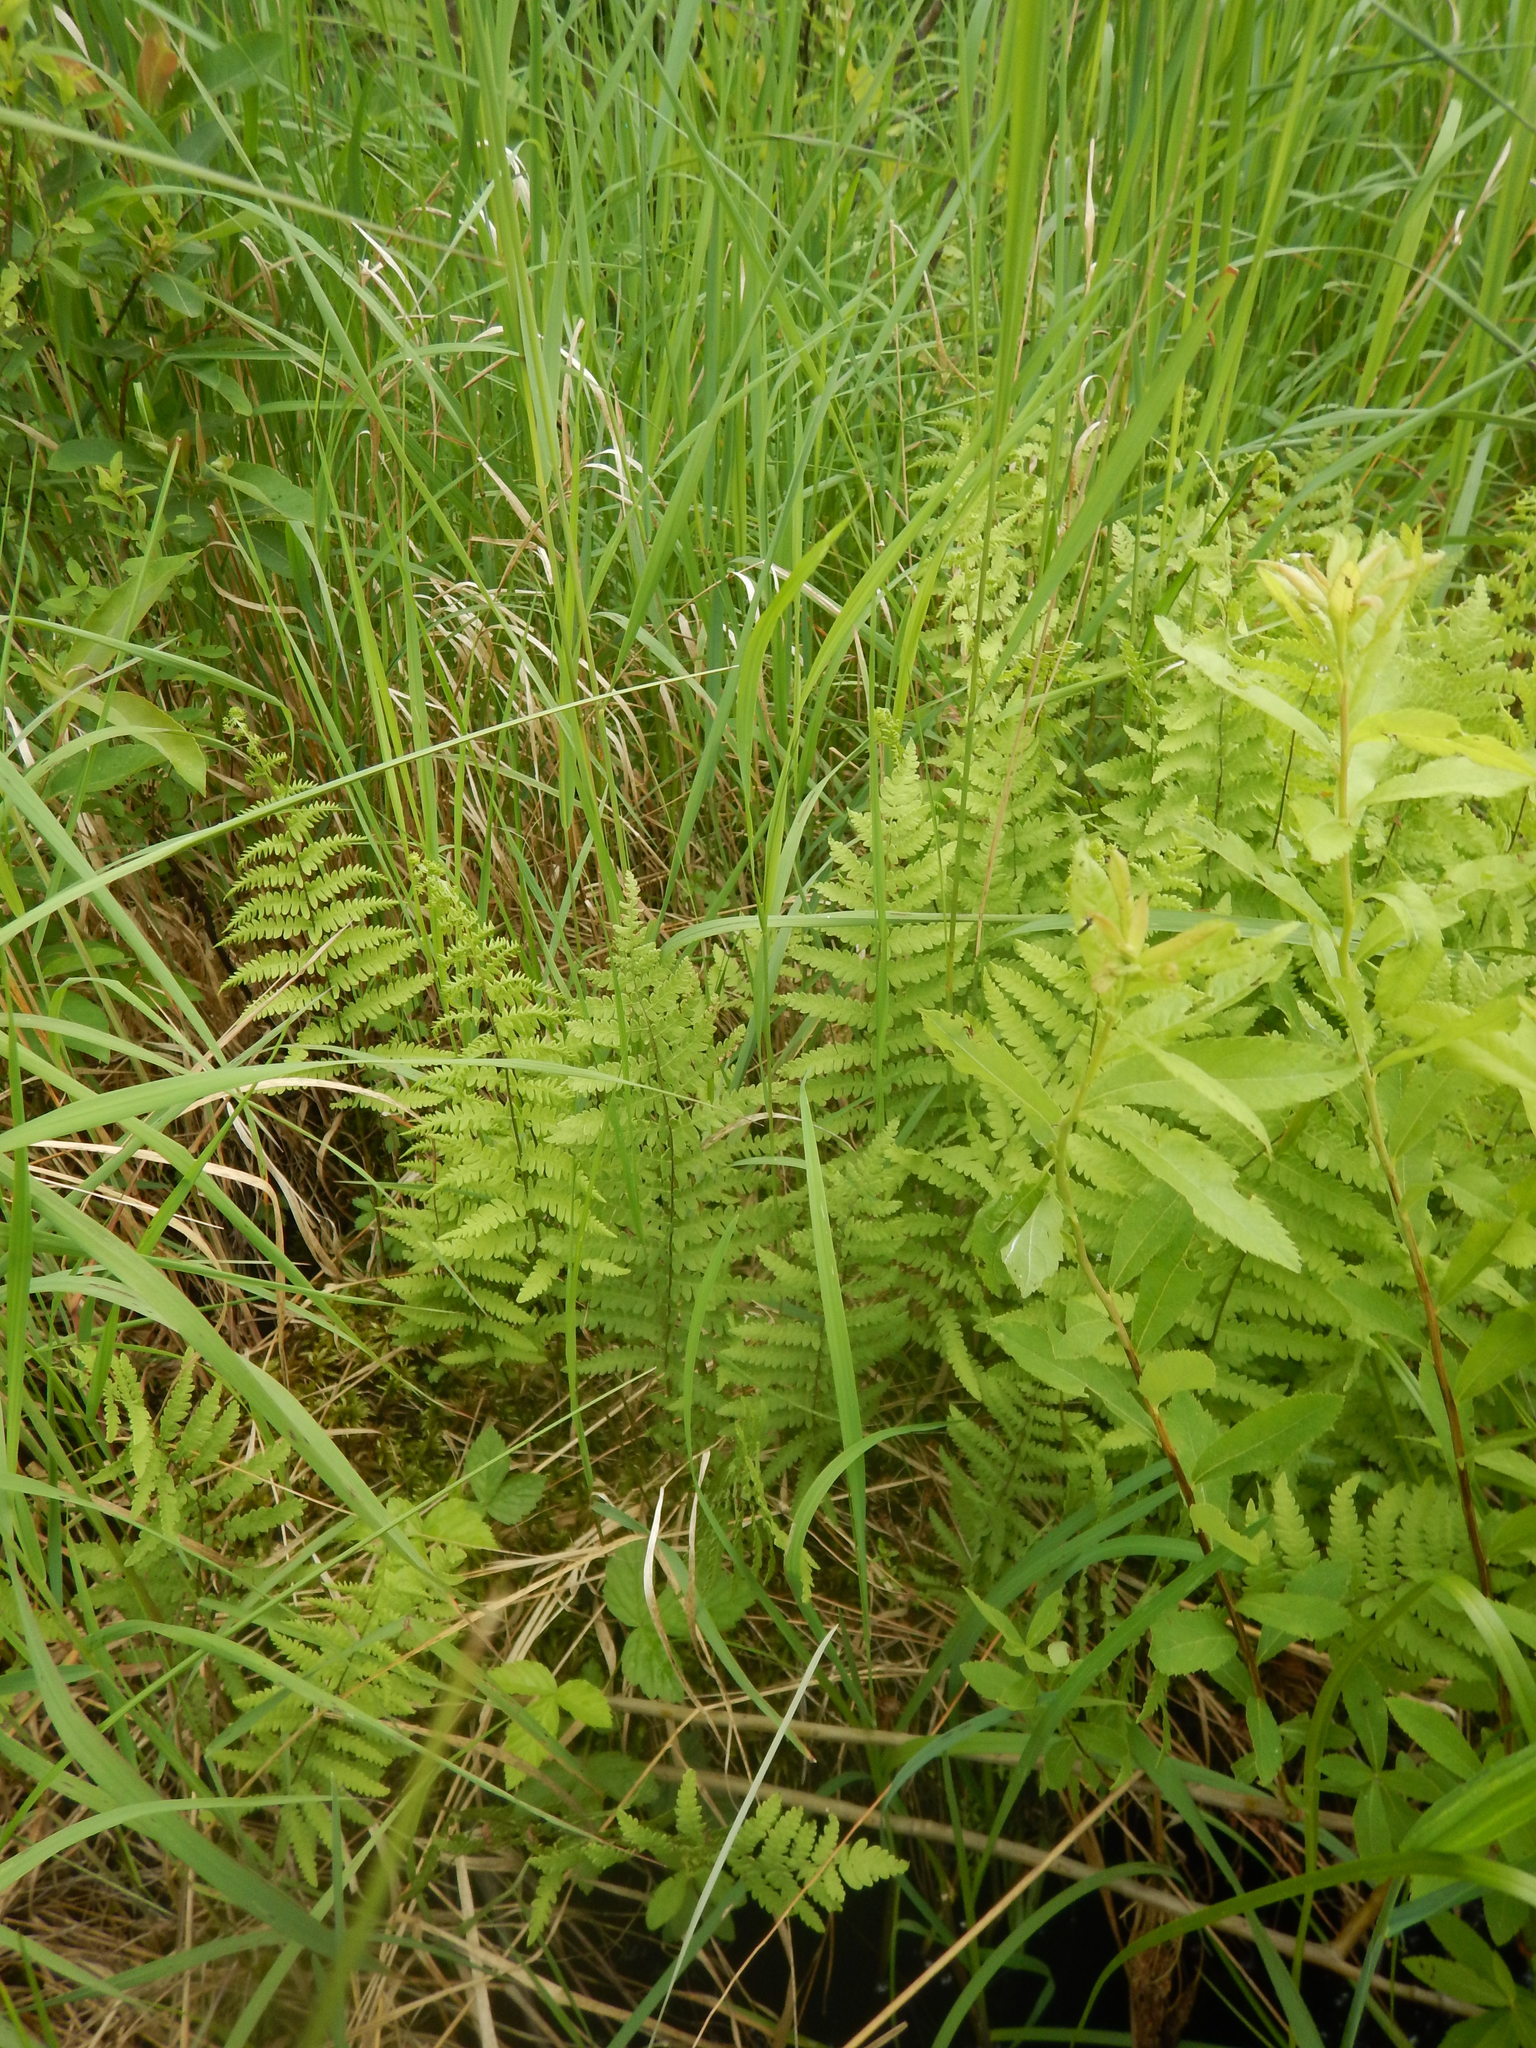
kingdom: Plantae
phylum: Tracheophyta
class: Polypodiopsida
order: Polypodiales
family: Thelypteridaceae
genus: Thelypteris
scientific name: Thelypteris palustris
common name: Marsh fern
